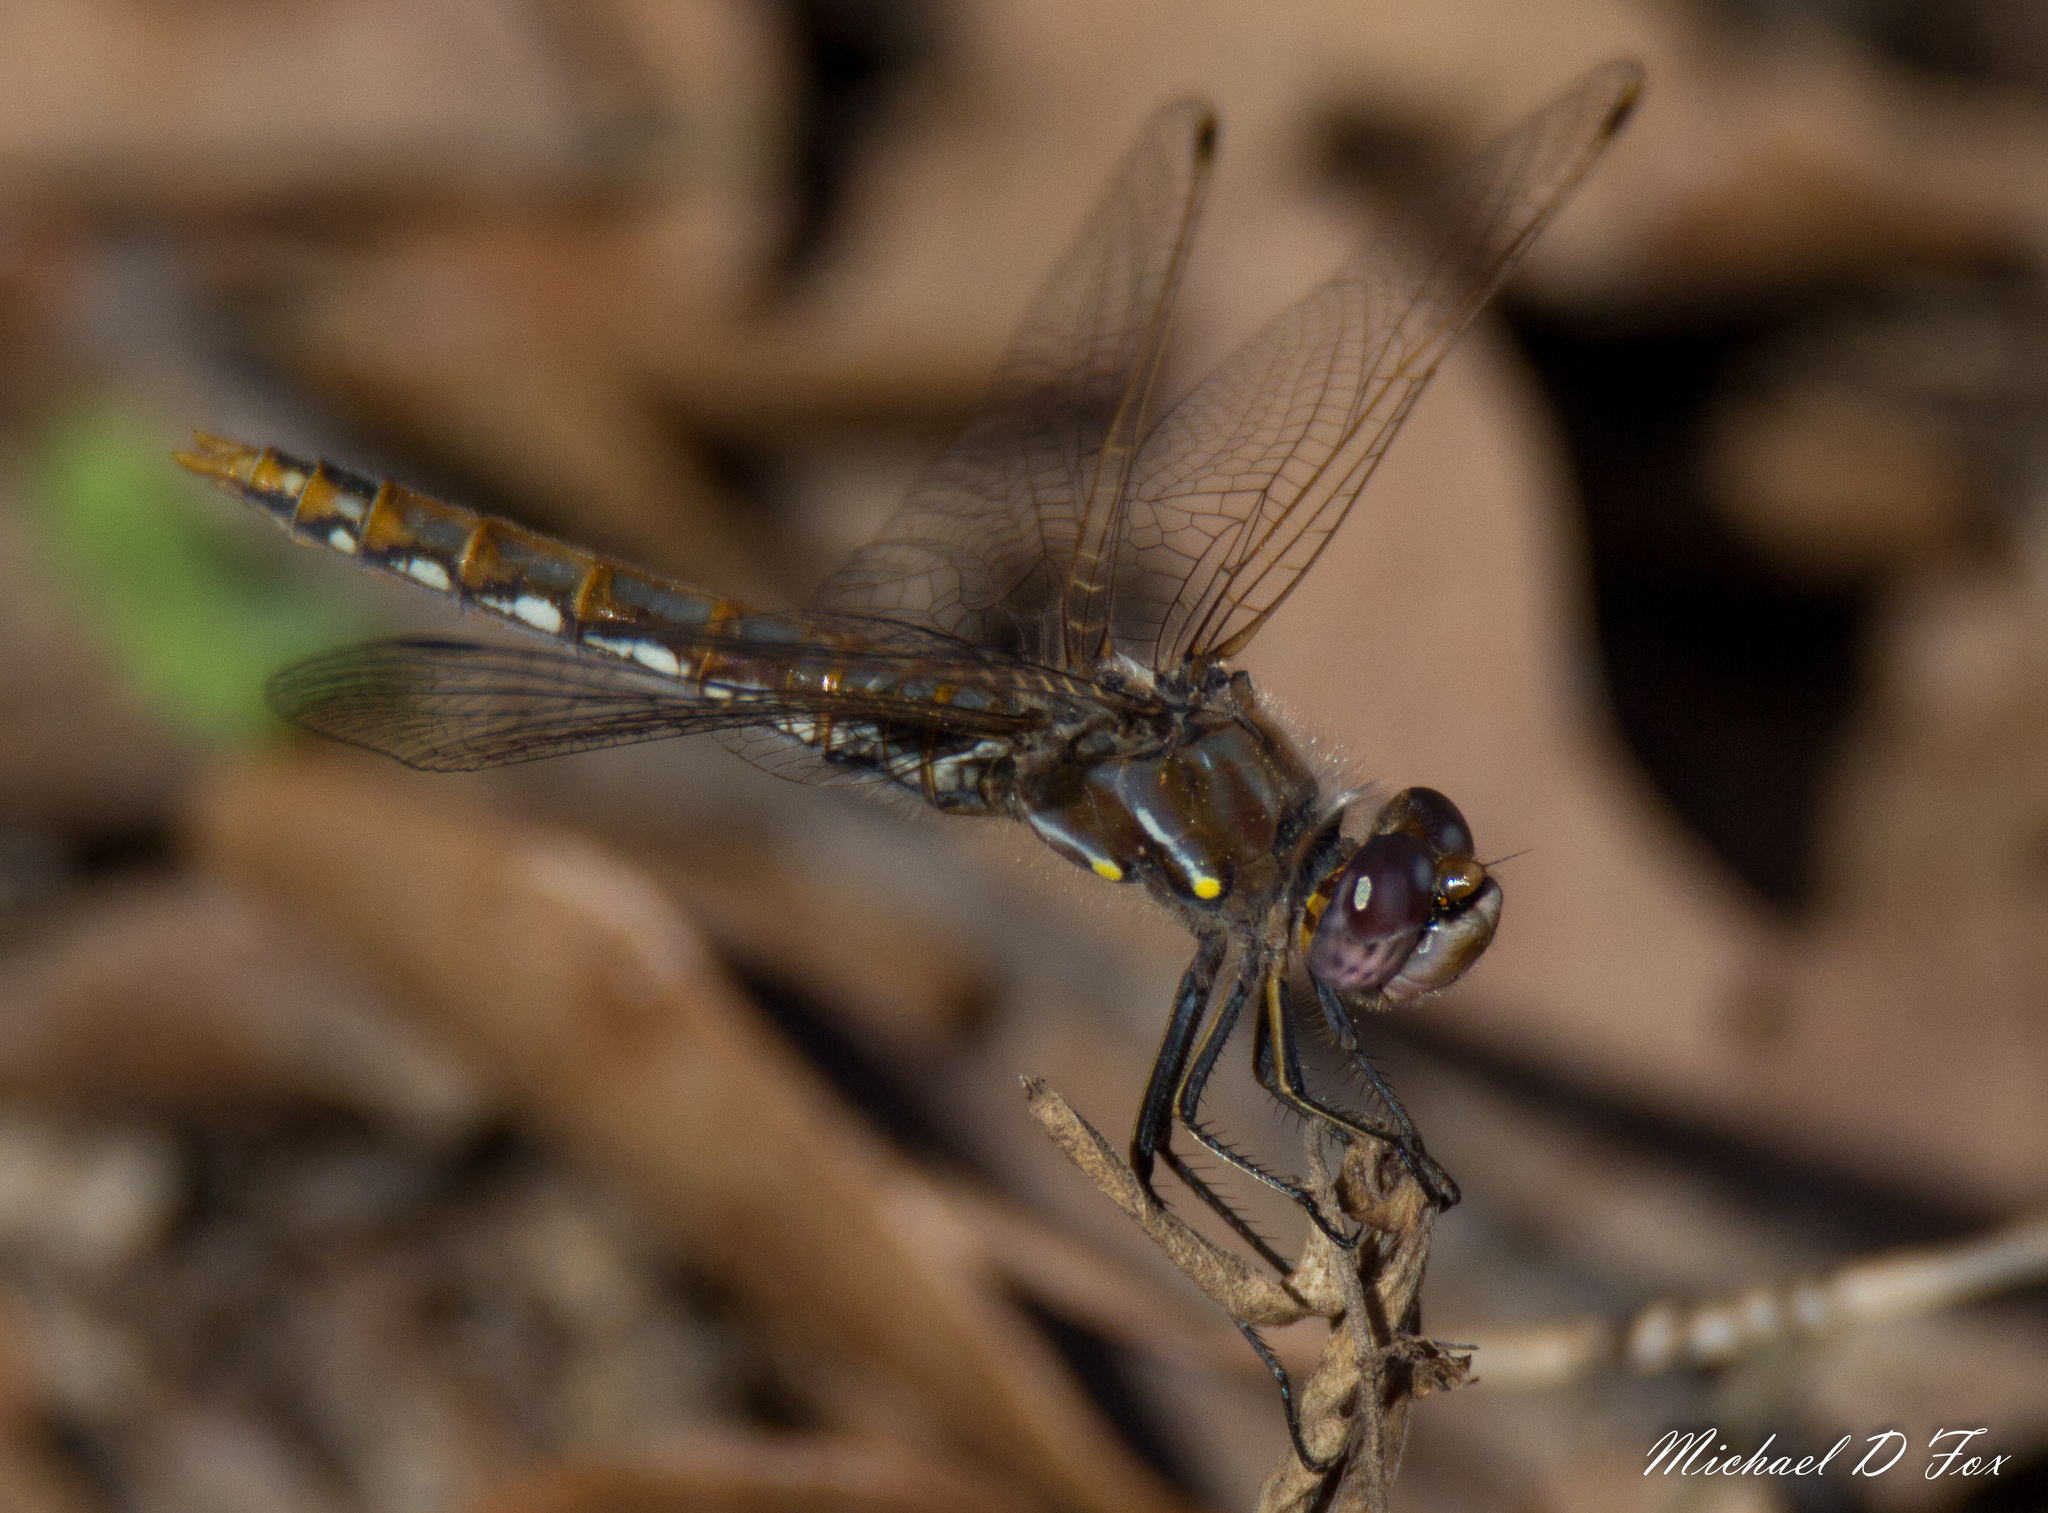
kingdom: Animalia
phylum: Arthropoda
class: Insecta
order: Odonata
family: Libellulidae
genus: Sympetrum
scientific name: Sympetrum corruptum
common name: Variegated meadowhawk
